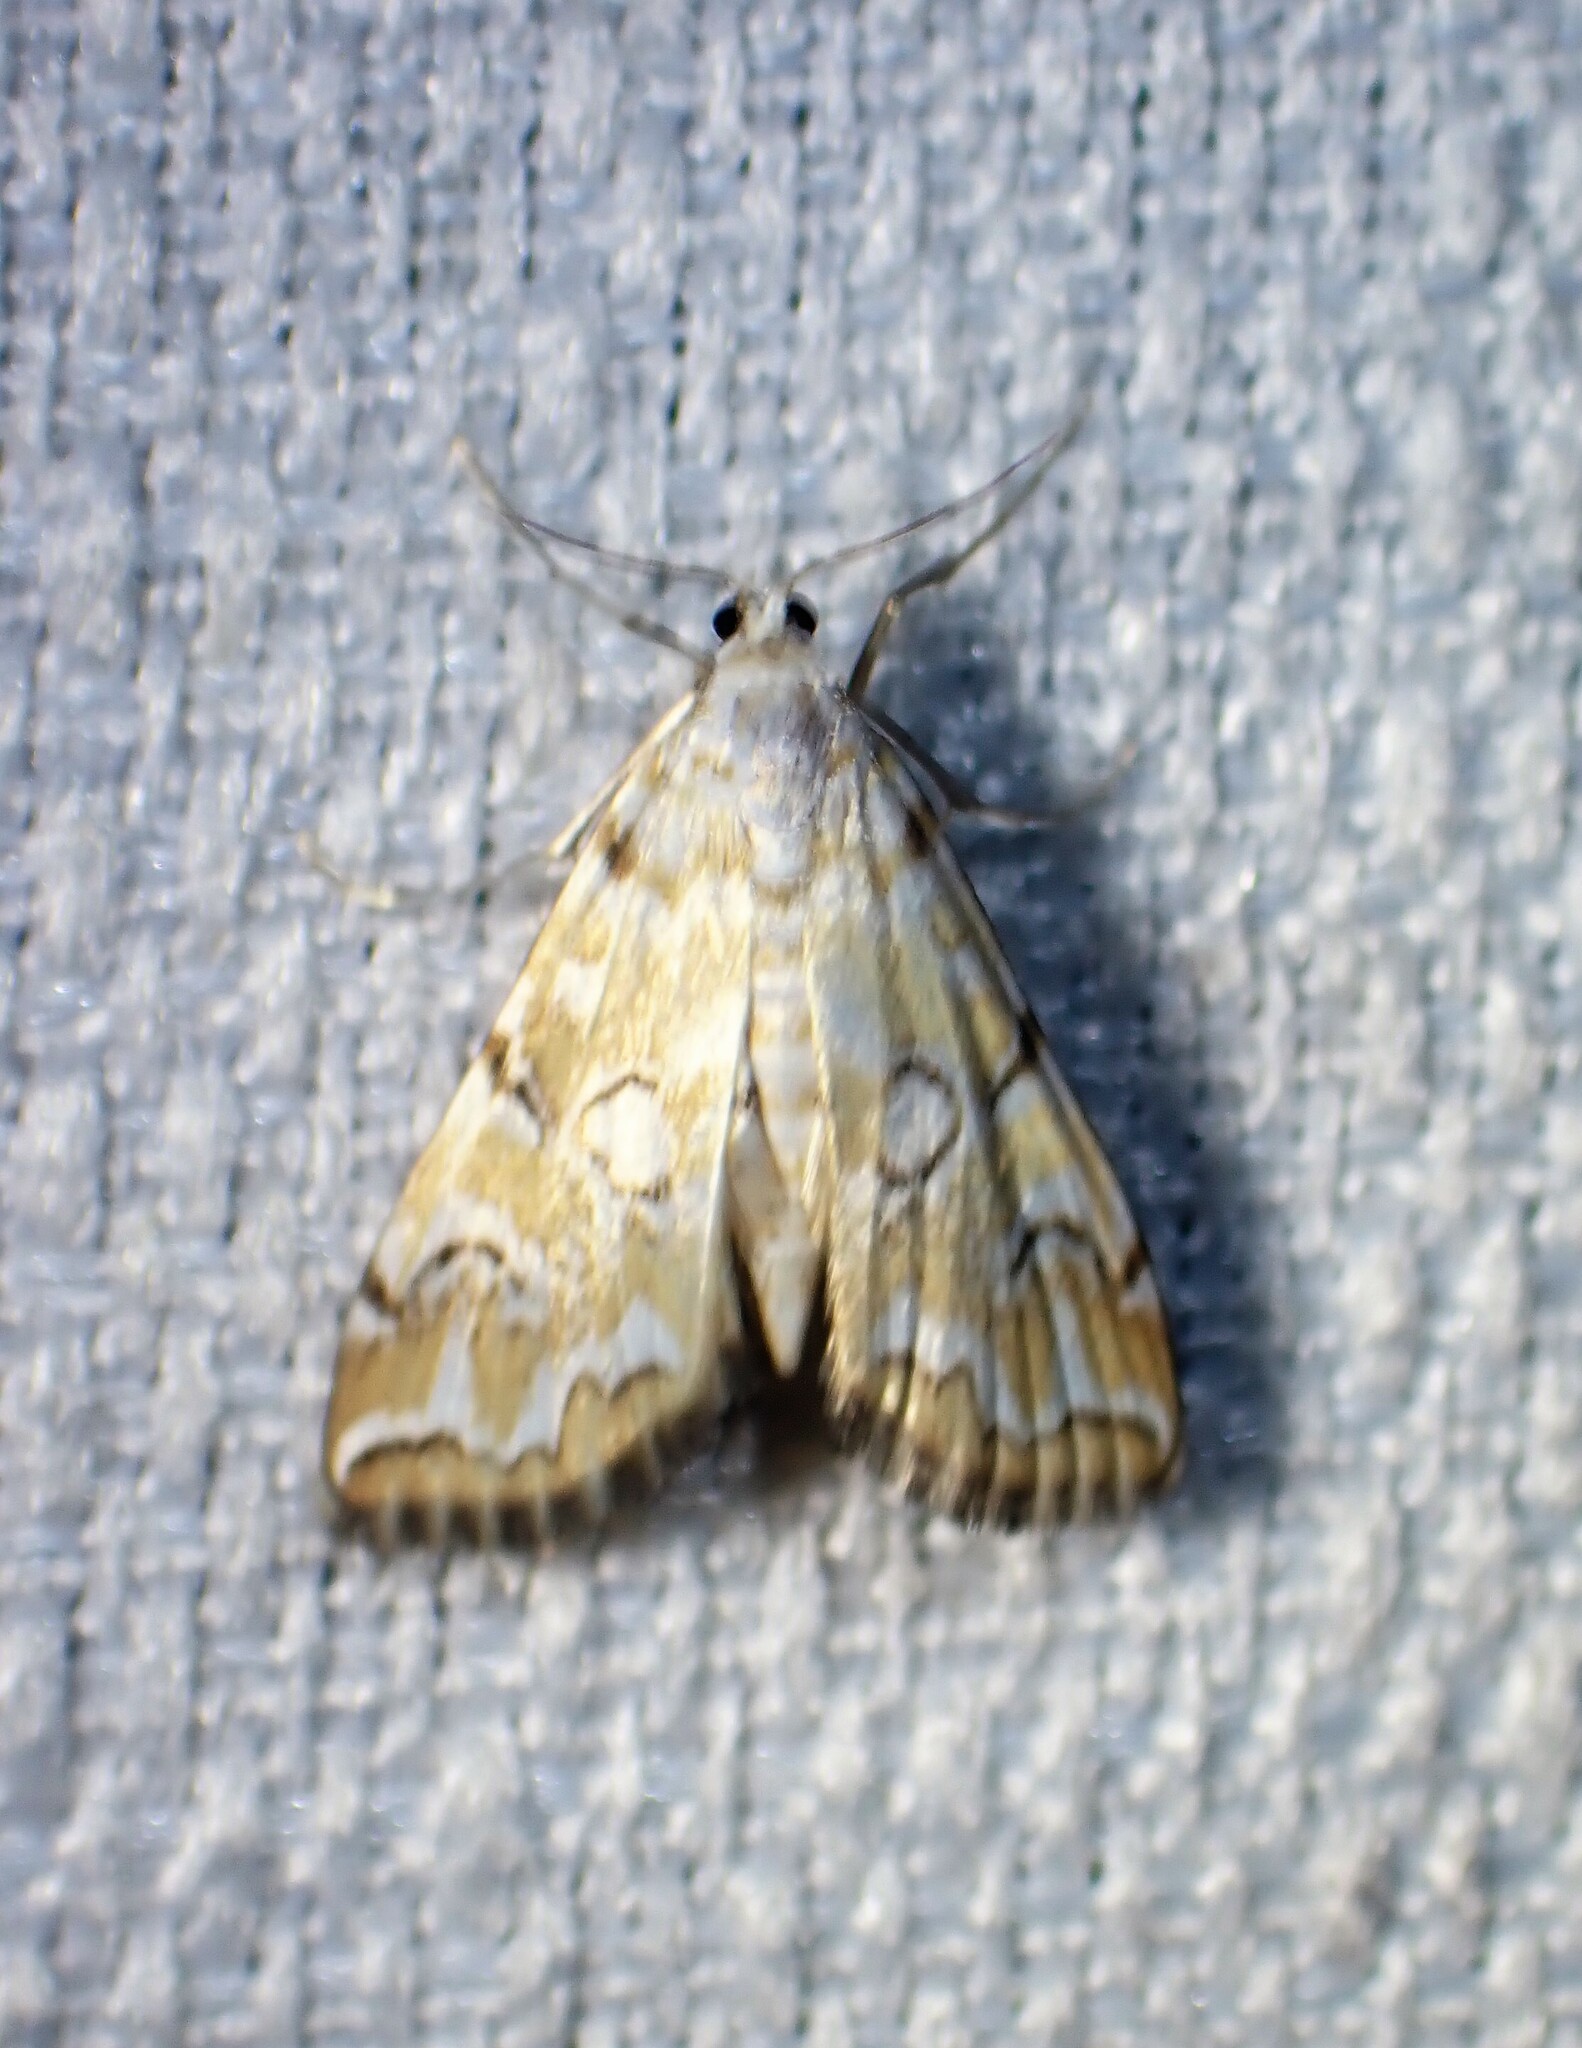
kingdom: Animalia
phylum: Arthropoda
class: Insecta
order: Lepidoptera
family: Crambidae
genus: Elophila
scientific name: Elophila icciusalis
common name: Pondside pyralid moth
